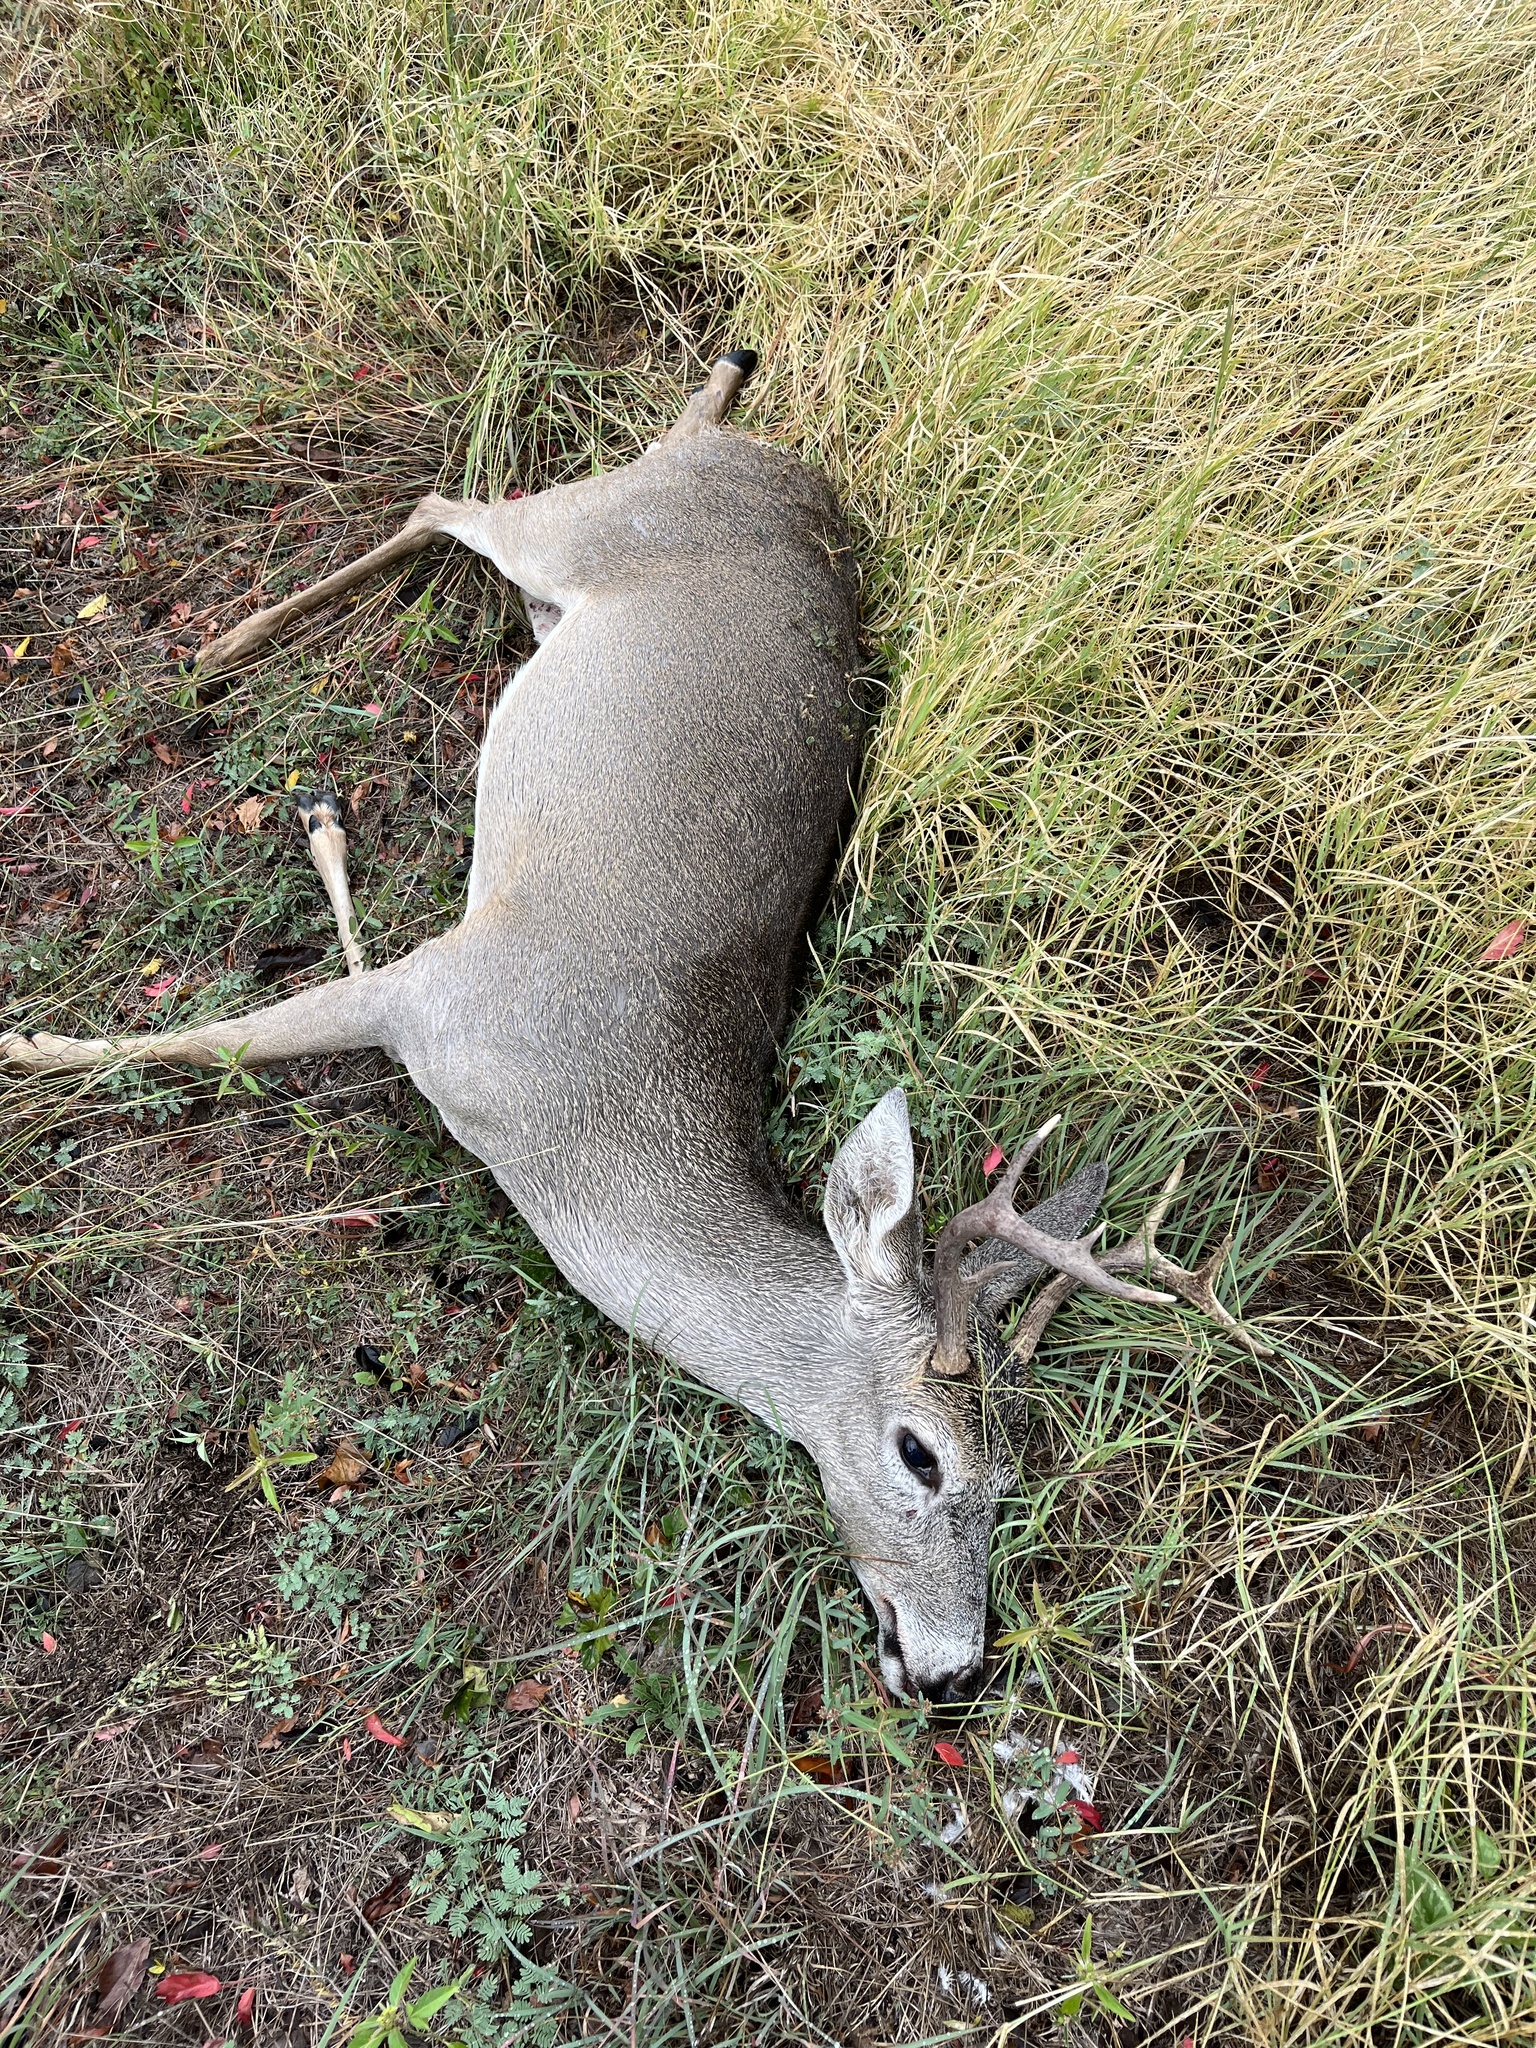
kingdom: Animalia
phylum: Chordata
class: Mammalia
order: Artiodactyla
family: Cervidae
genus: Odocoileus
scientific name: Odocoileus virginianus
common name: White-tailed deer
